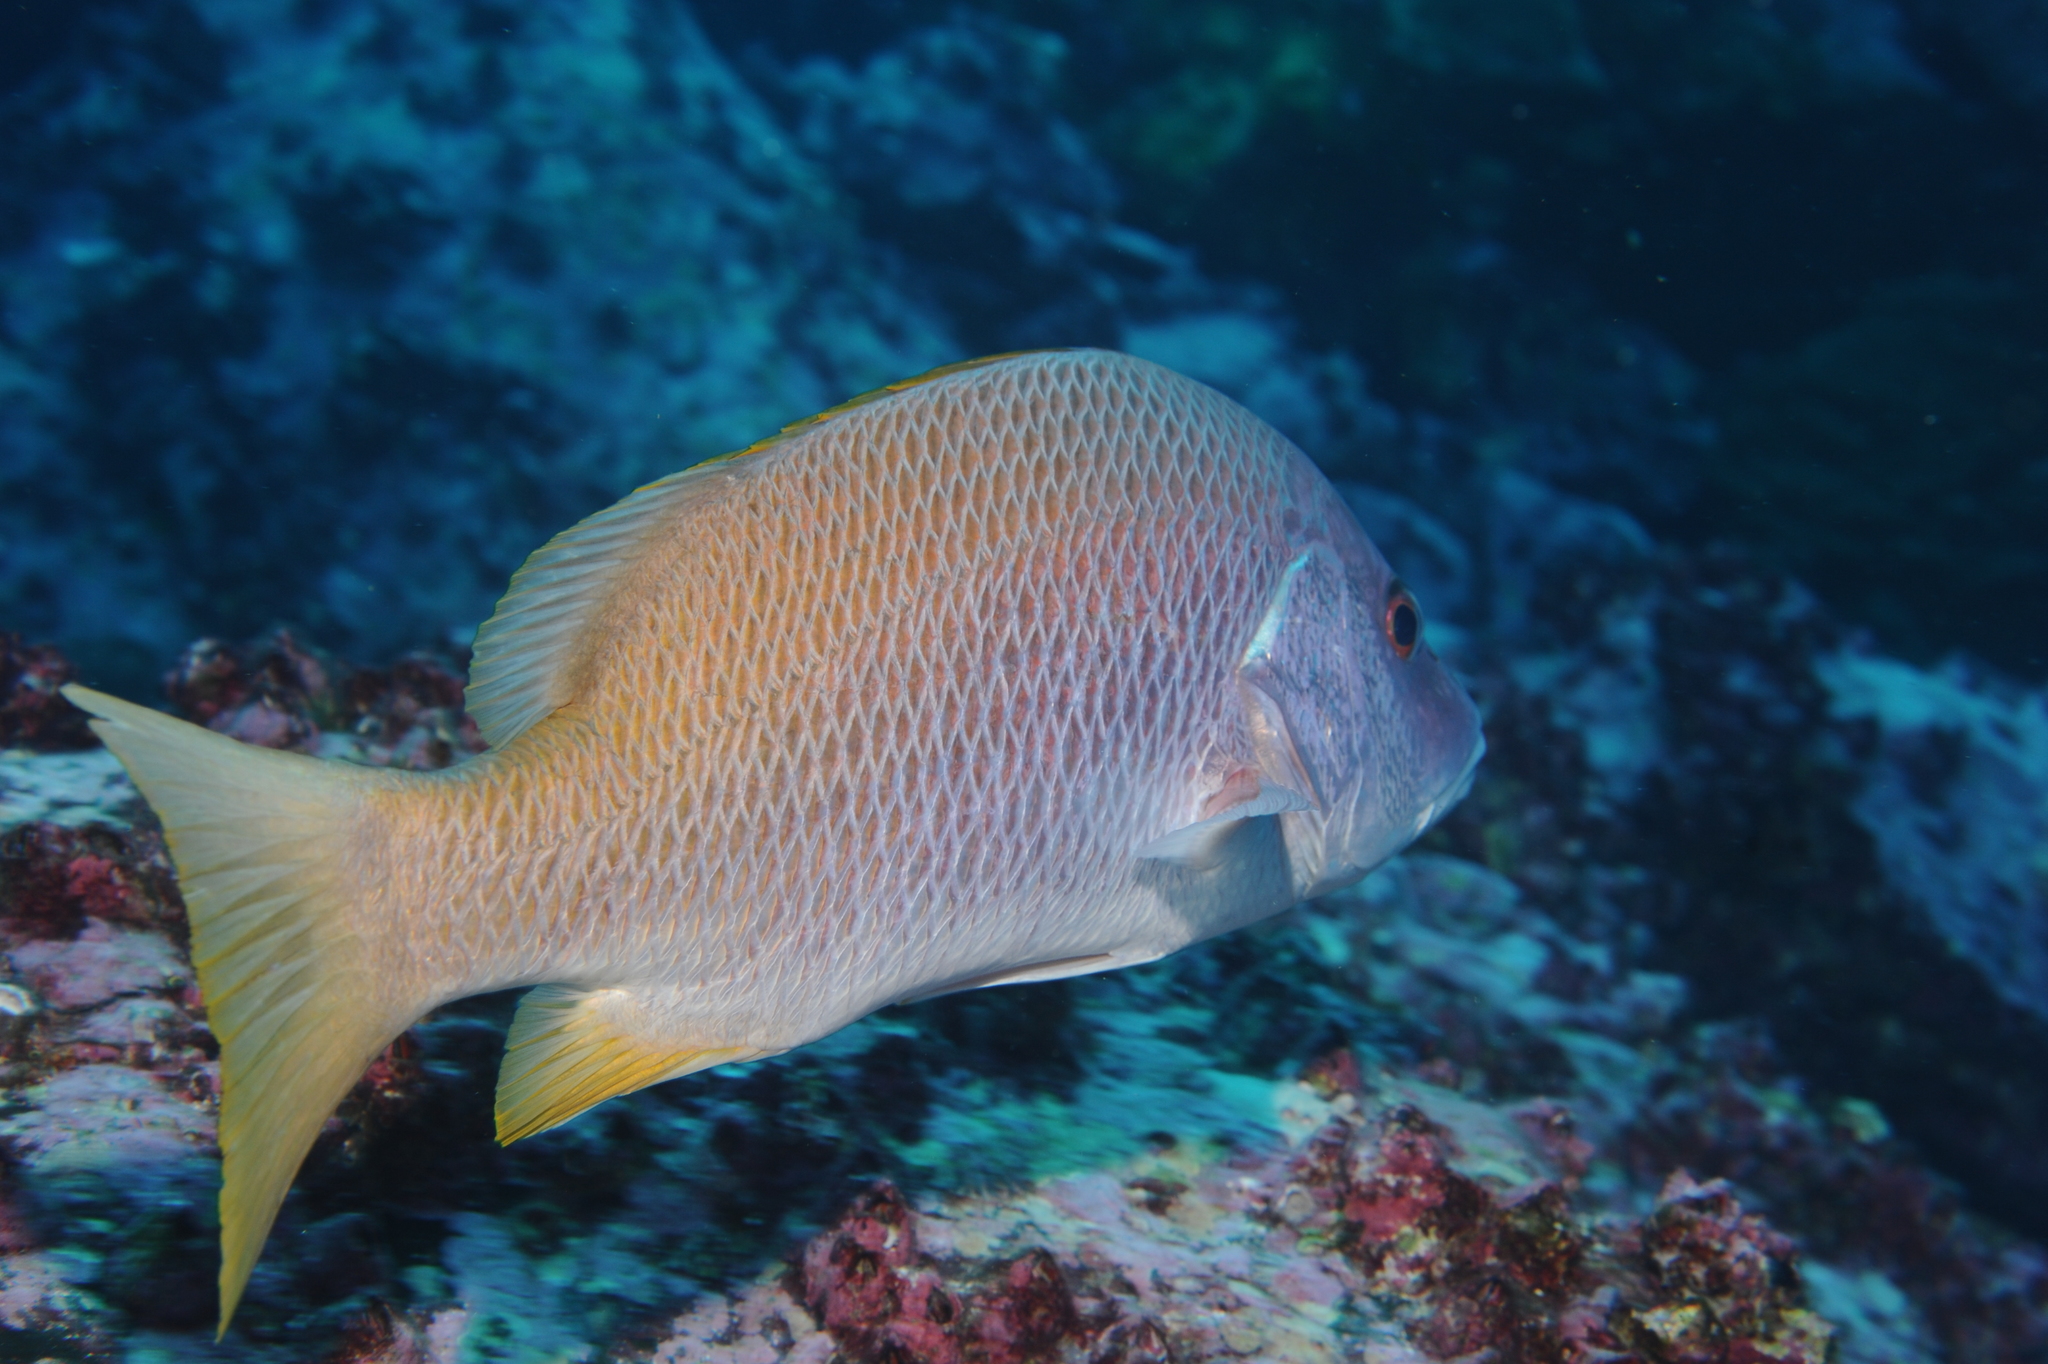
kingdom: Animalia
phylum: Chordata
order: Perciformes
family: Lutjanidae
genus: Lutjanus
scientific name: Lutjanus argentiventris
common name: Yellow snapper
